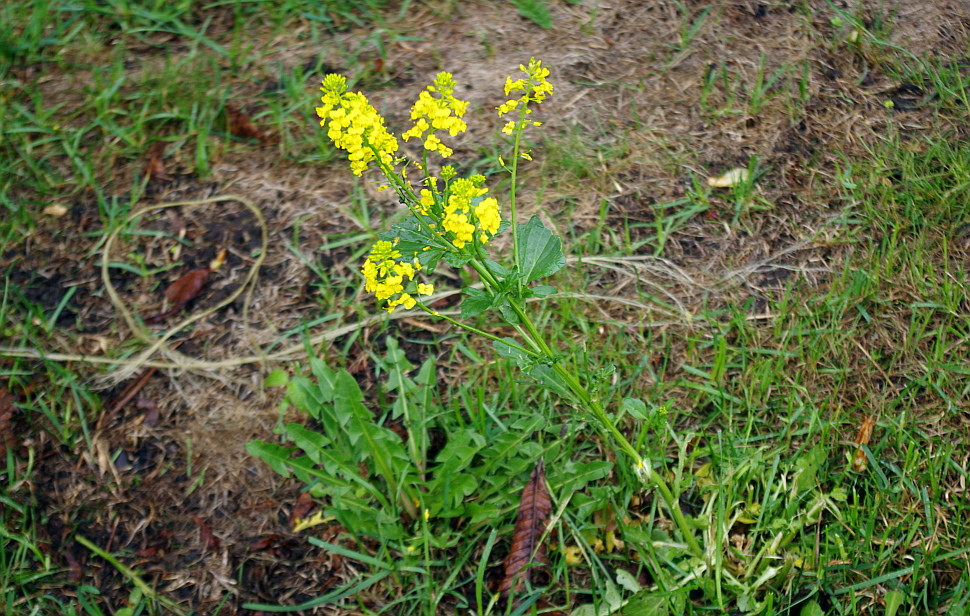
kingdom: Plantae
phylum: Tracheophyta
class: Magnoliopsida
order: Brassicales
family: Brassicaceae
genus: Barbarea
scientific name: Barbarea vulgaris
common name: Cressy-greens
